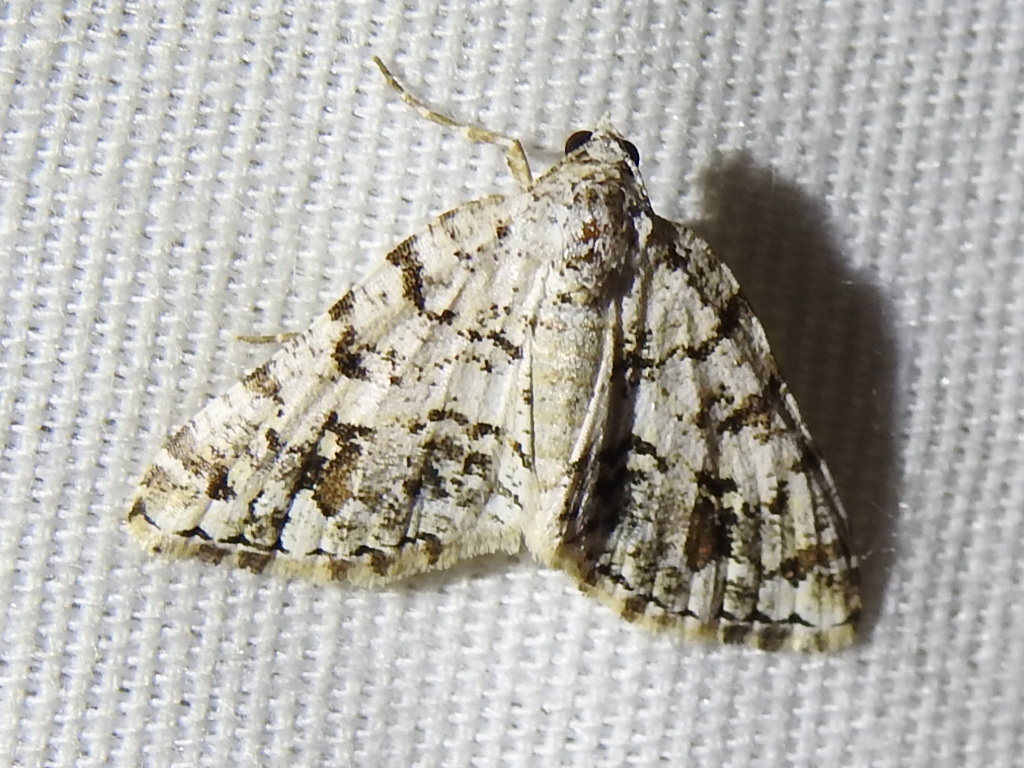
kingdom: Animalia
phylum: Arthropoda
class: Insecta
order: Lepidoptera
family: Geometridae
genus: Macaria
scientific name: Macaria graphidaria
